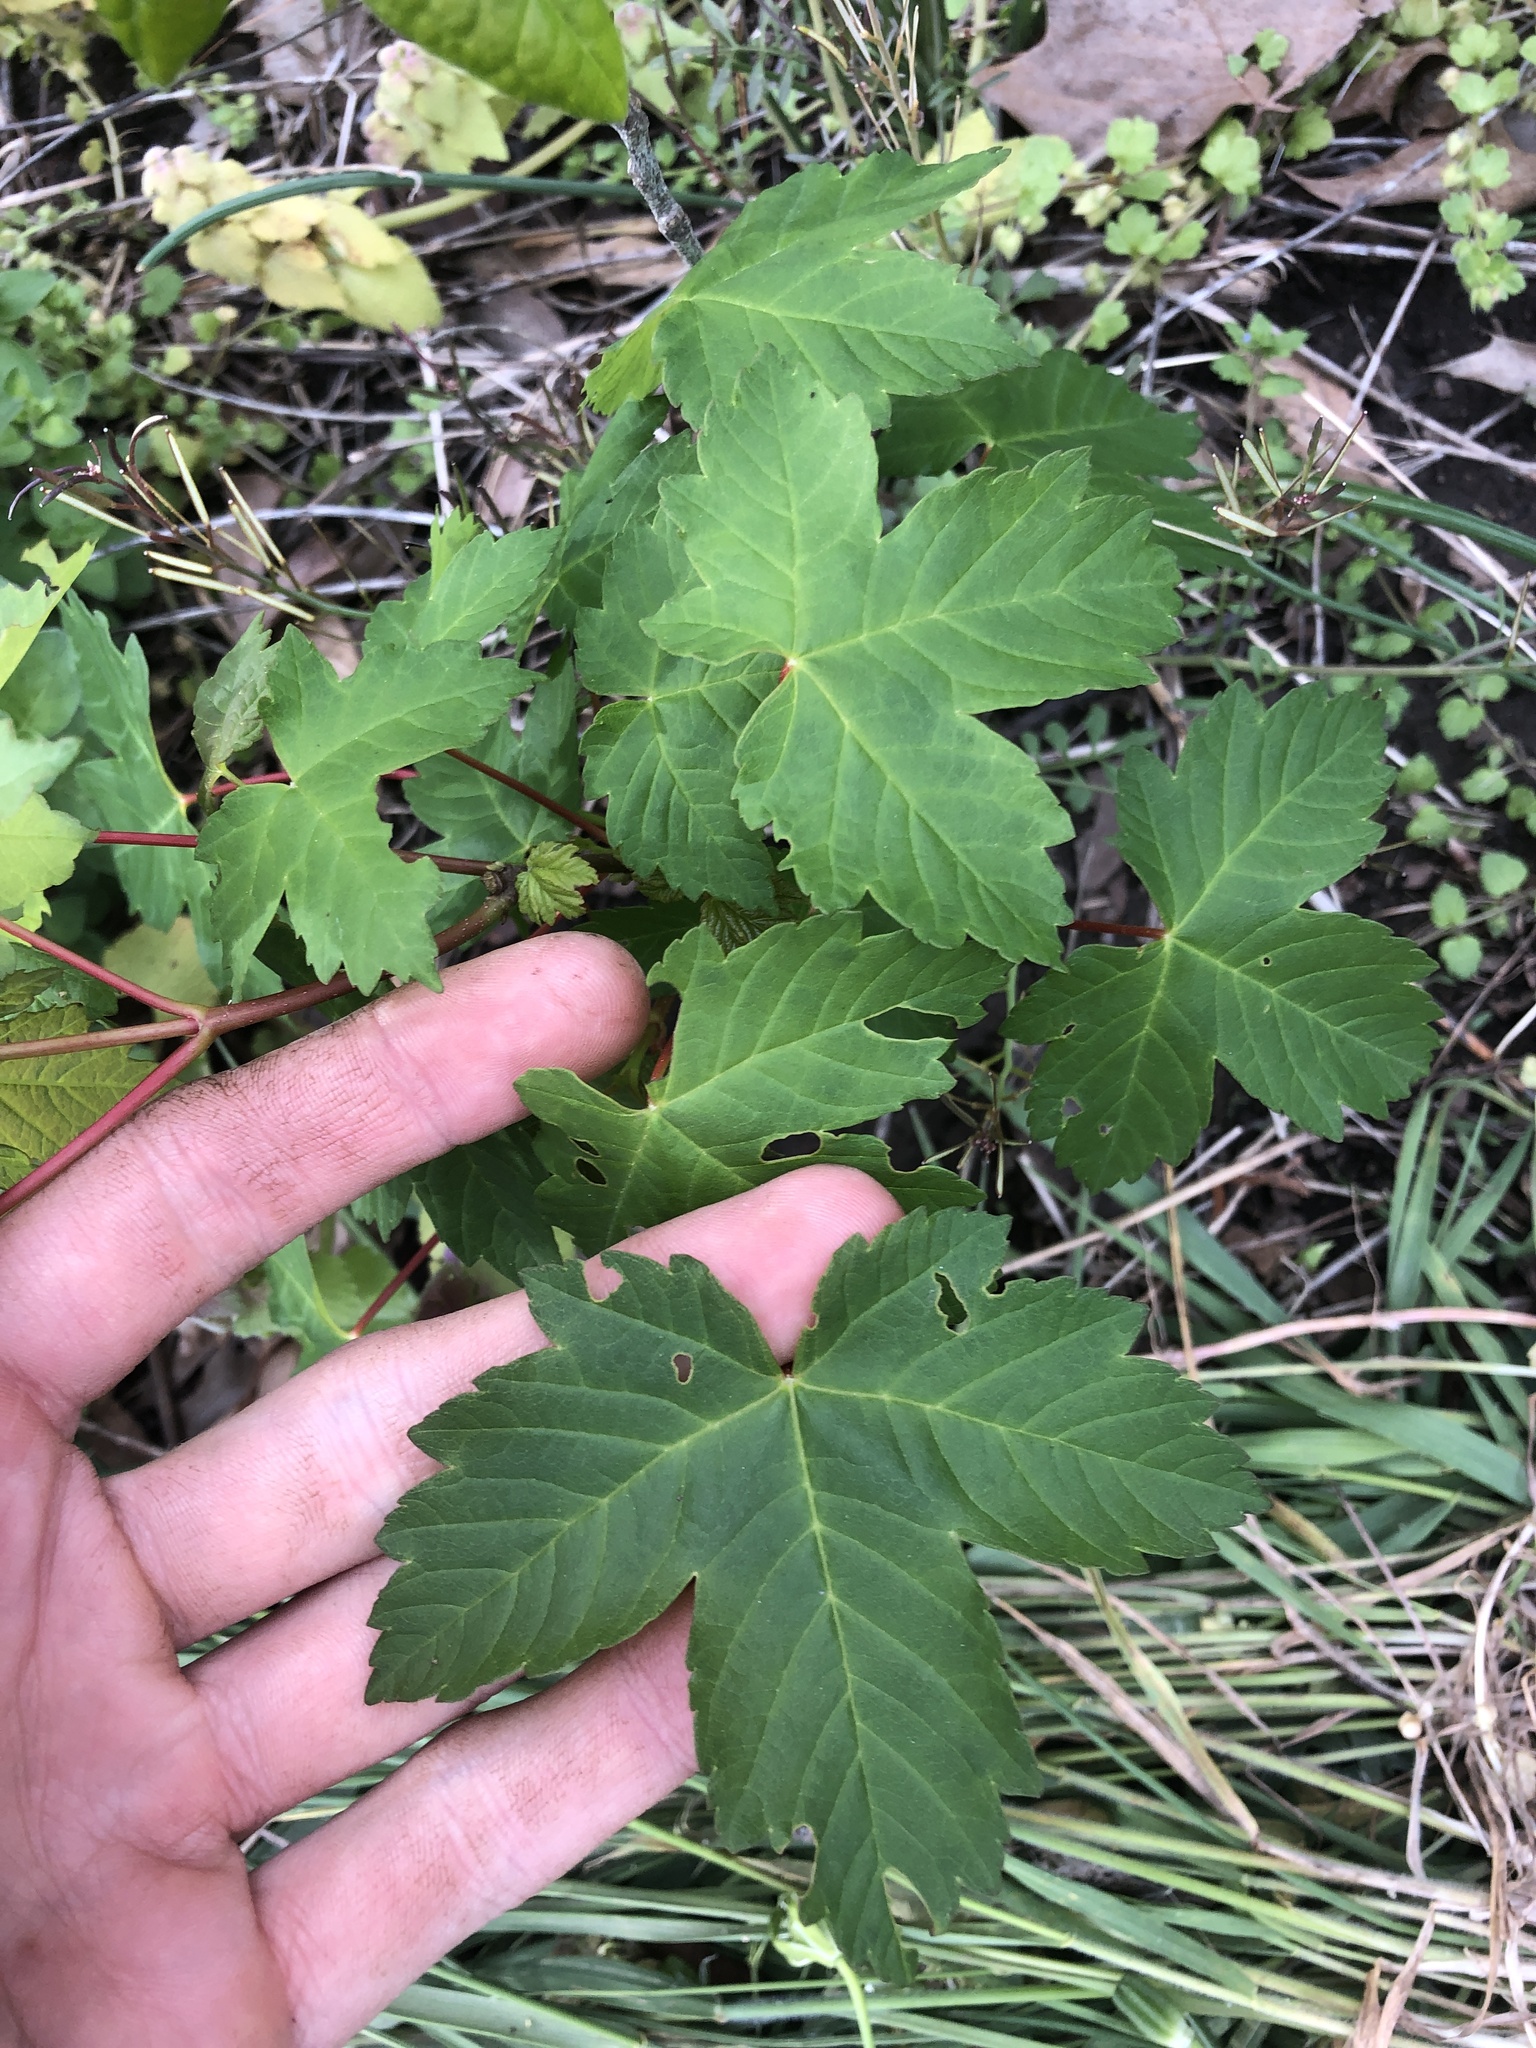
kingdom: Plantae
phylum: Tracheophyta
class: Magnoliopsida
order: Sapindales
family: Sapindaceae
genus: Acer
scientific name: Acer pseudoplatanus
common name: Sycamore
